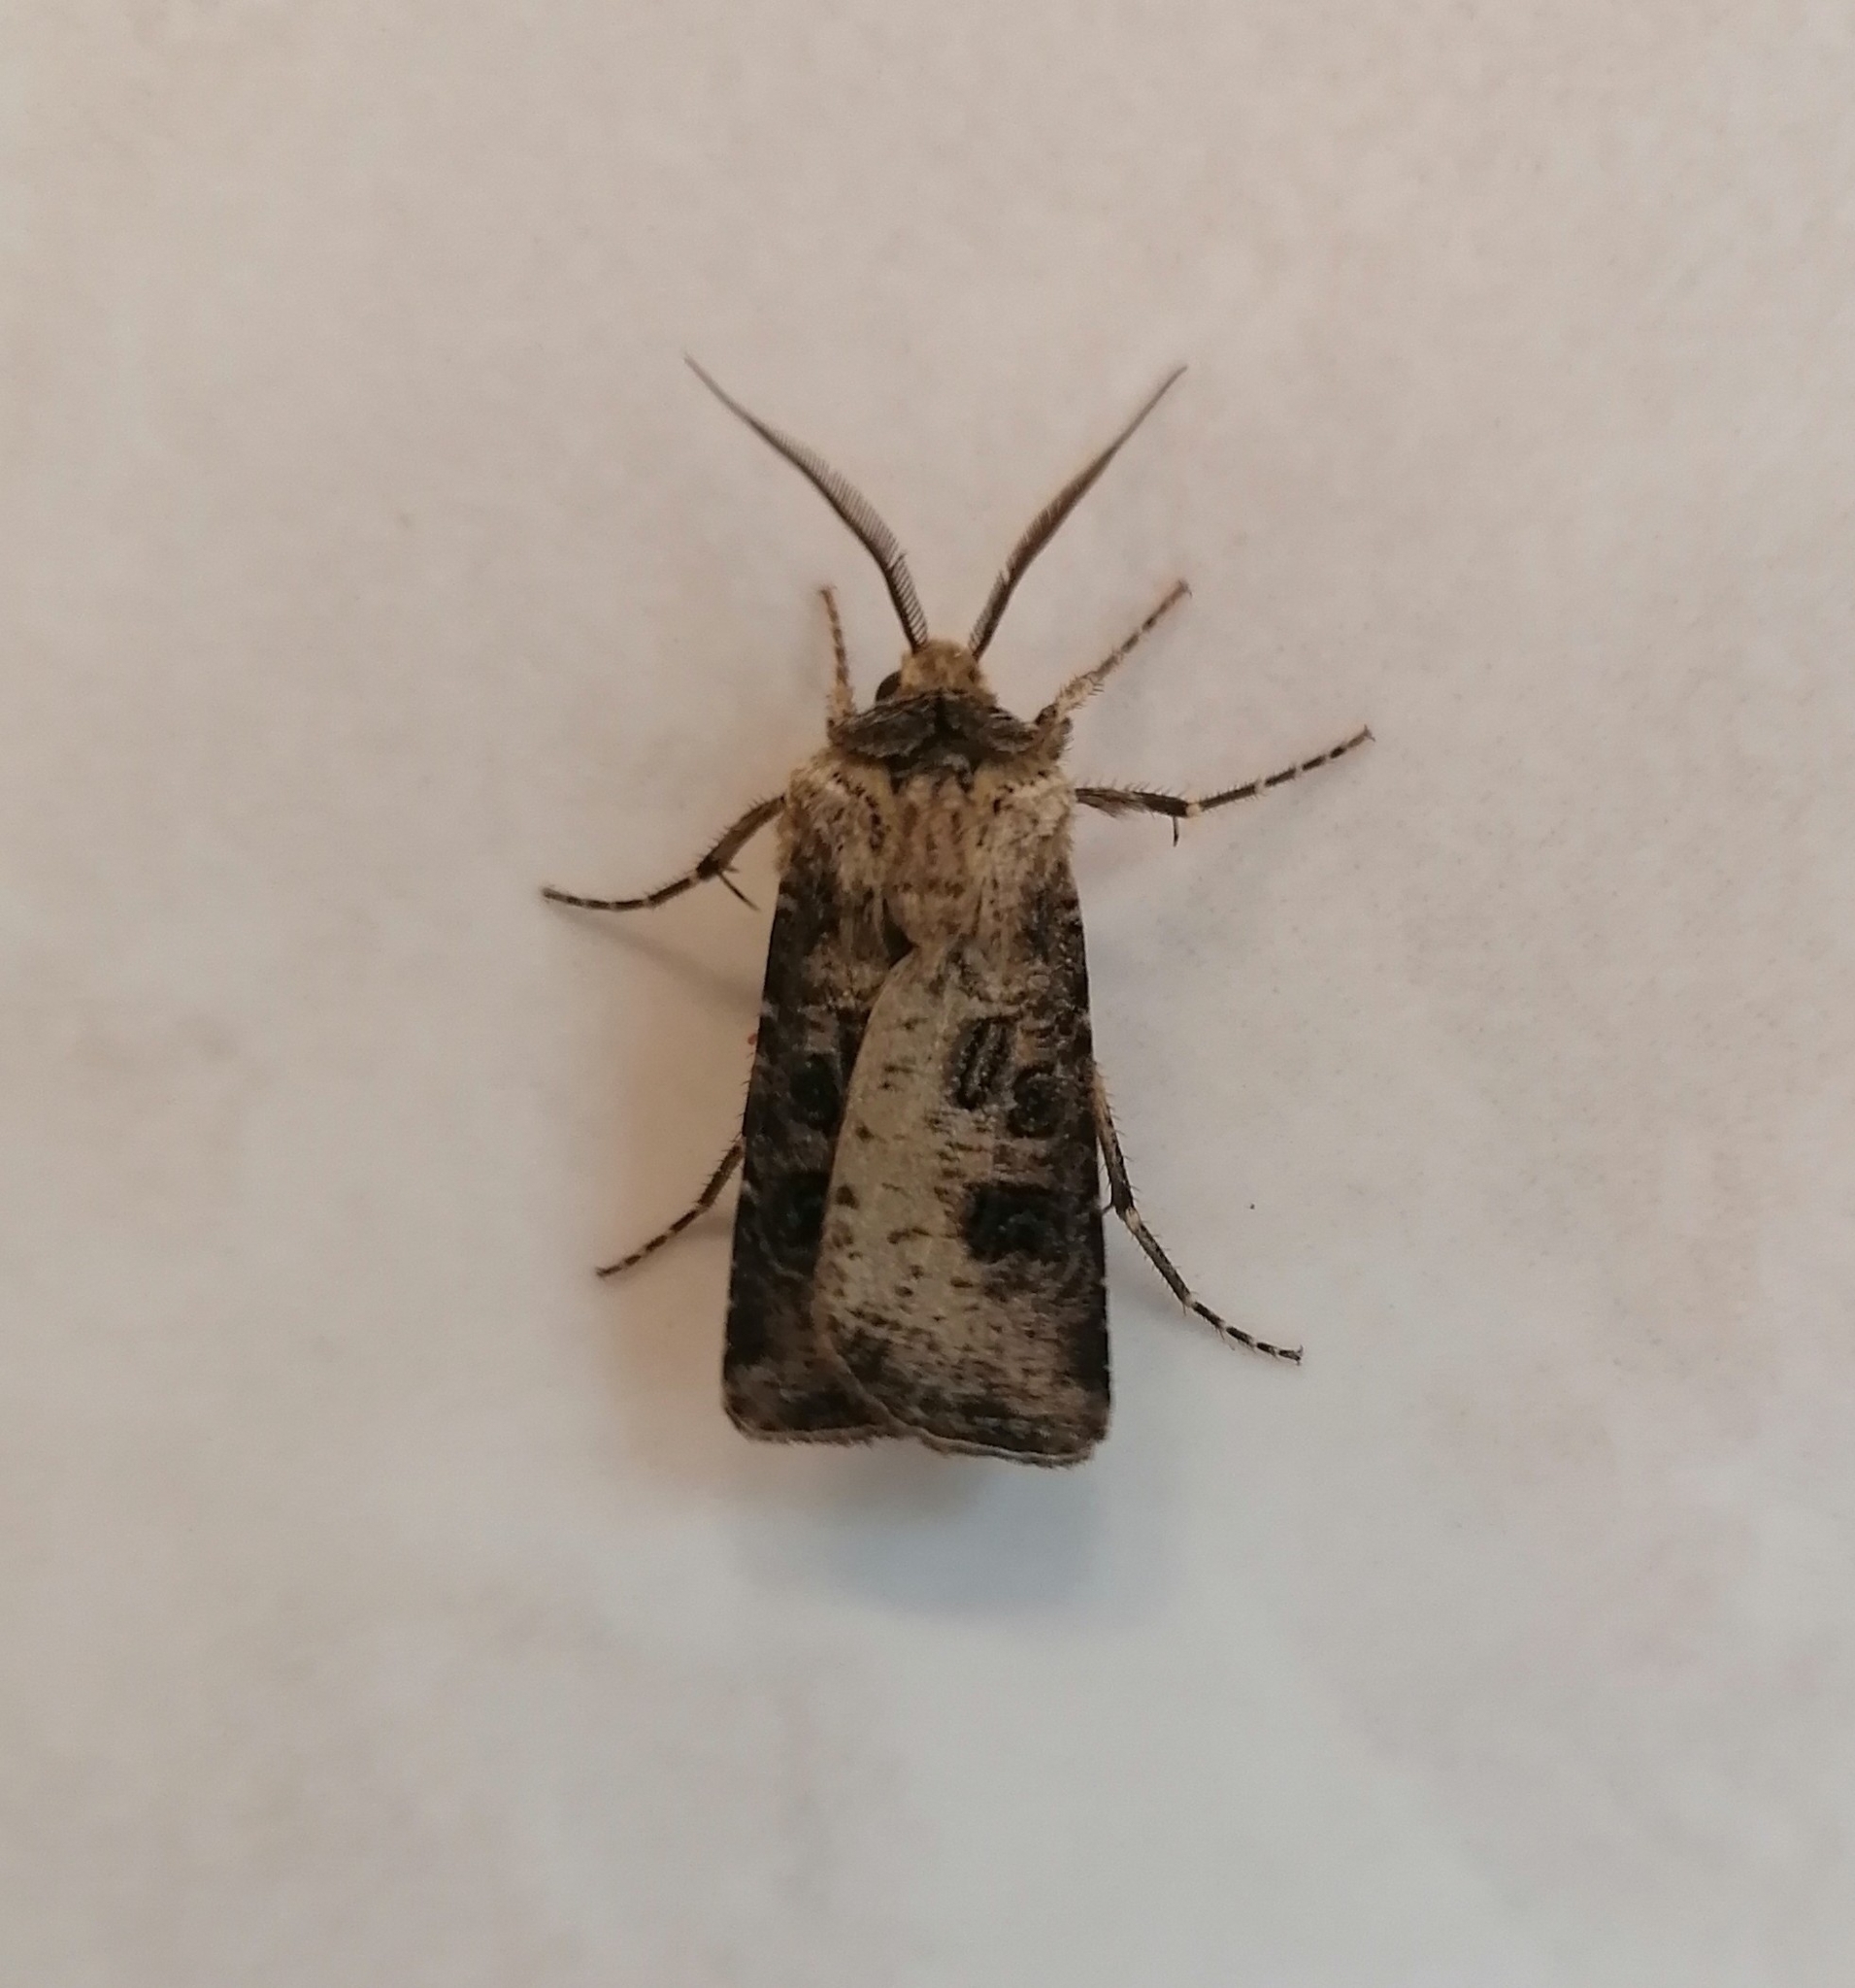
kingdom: Animalia
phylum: Arthropoda
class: Insecta
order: Lepidoptera
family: Noctuidae
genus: Agrotis
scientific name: Agrotis clavis
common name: Heart and club
